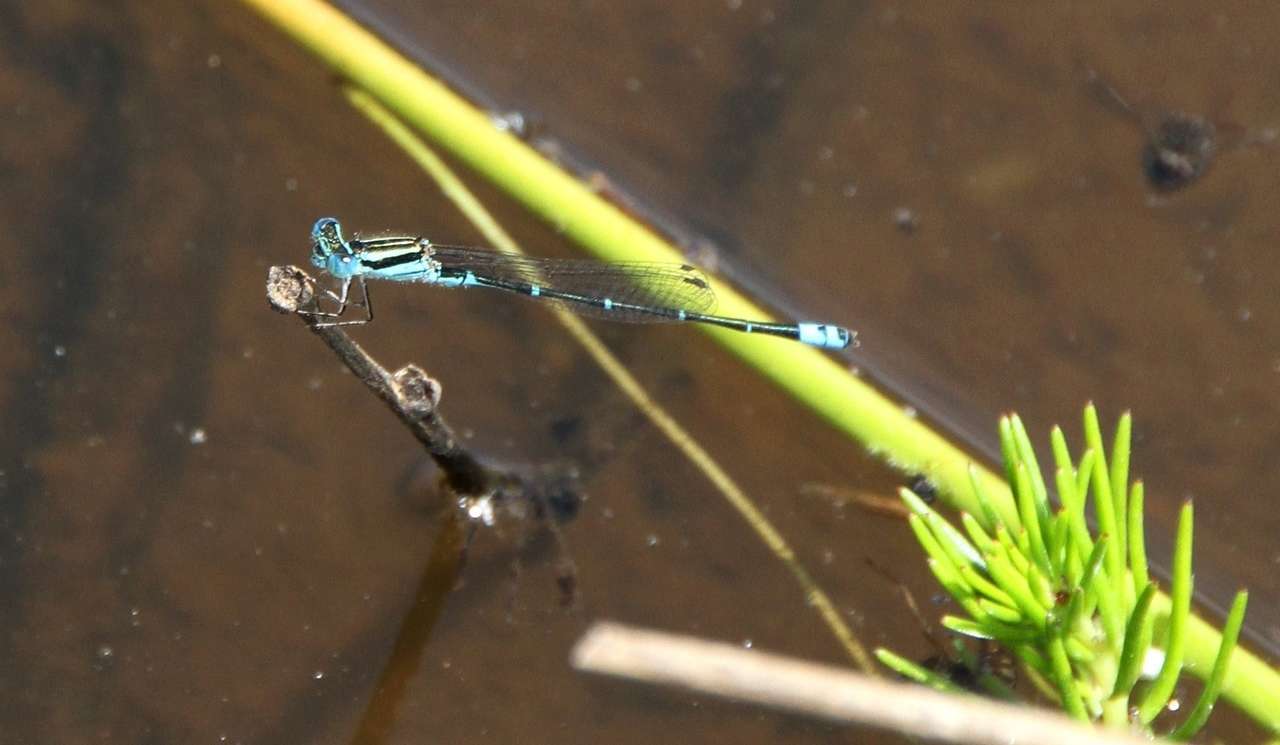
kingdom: Animalia
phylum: Arthropoda
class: Insecta
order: Odonata
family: Coenagrionidae
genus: Austroagrion
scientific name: Austroagrion watsoni
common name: Eastern billabongfly
